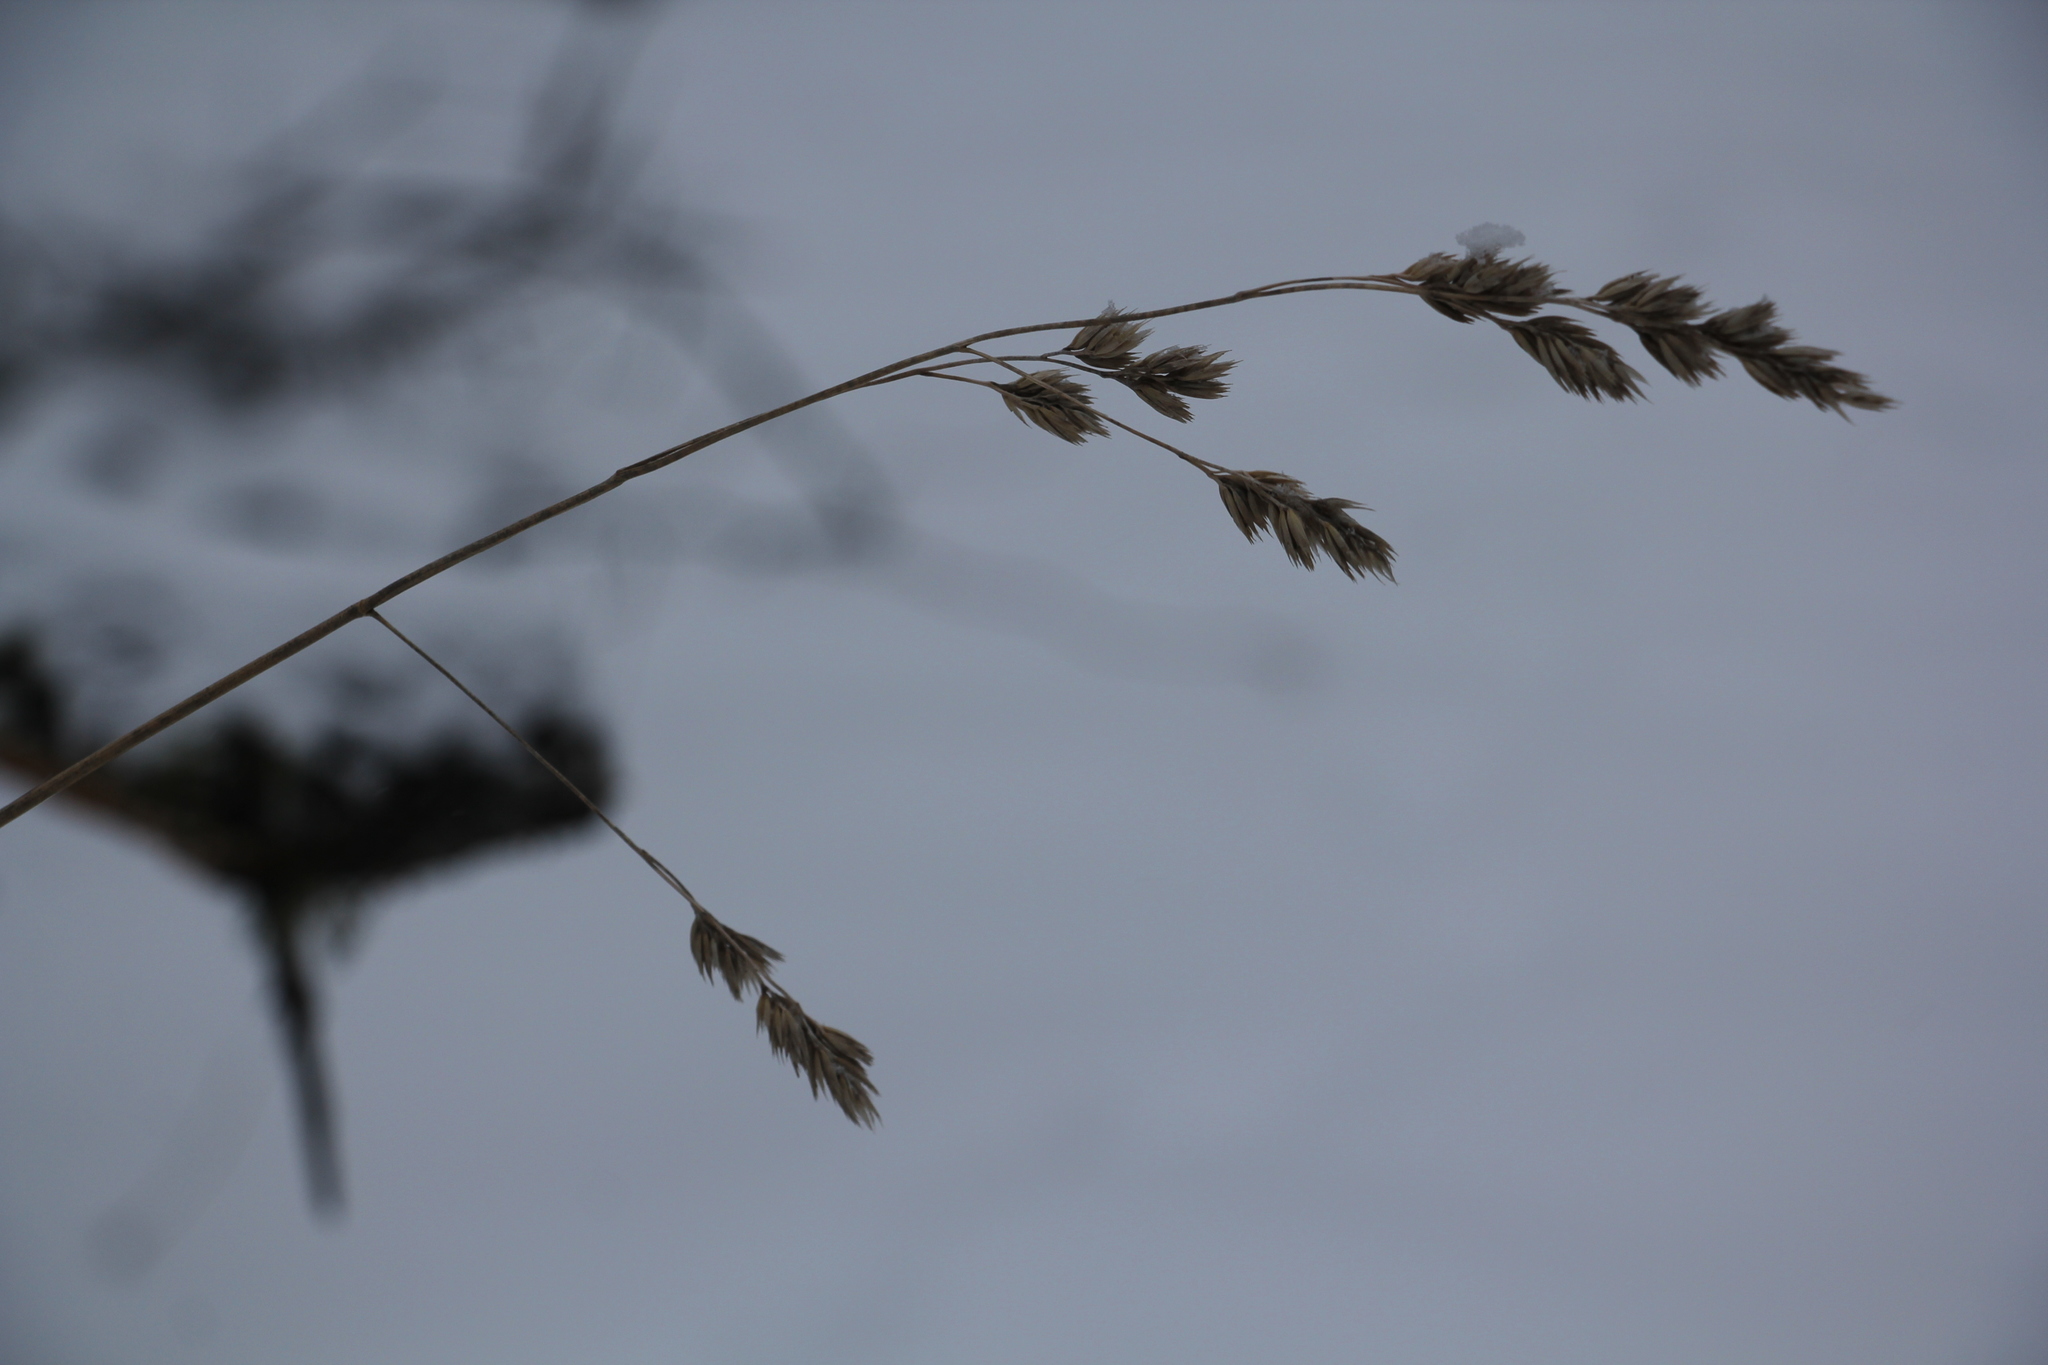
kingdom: Plantae
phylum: Tracheophyta
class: Liliopsida
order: Poales
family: Poaceae
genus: Dactylis
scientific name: Dactylis glomerata
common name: Orchardgrass
